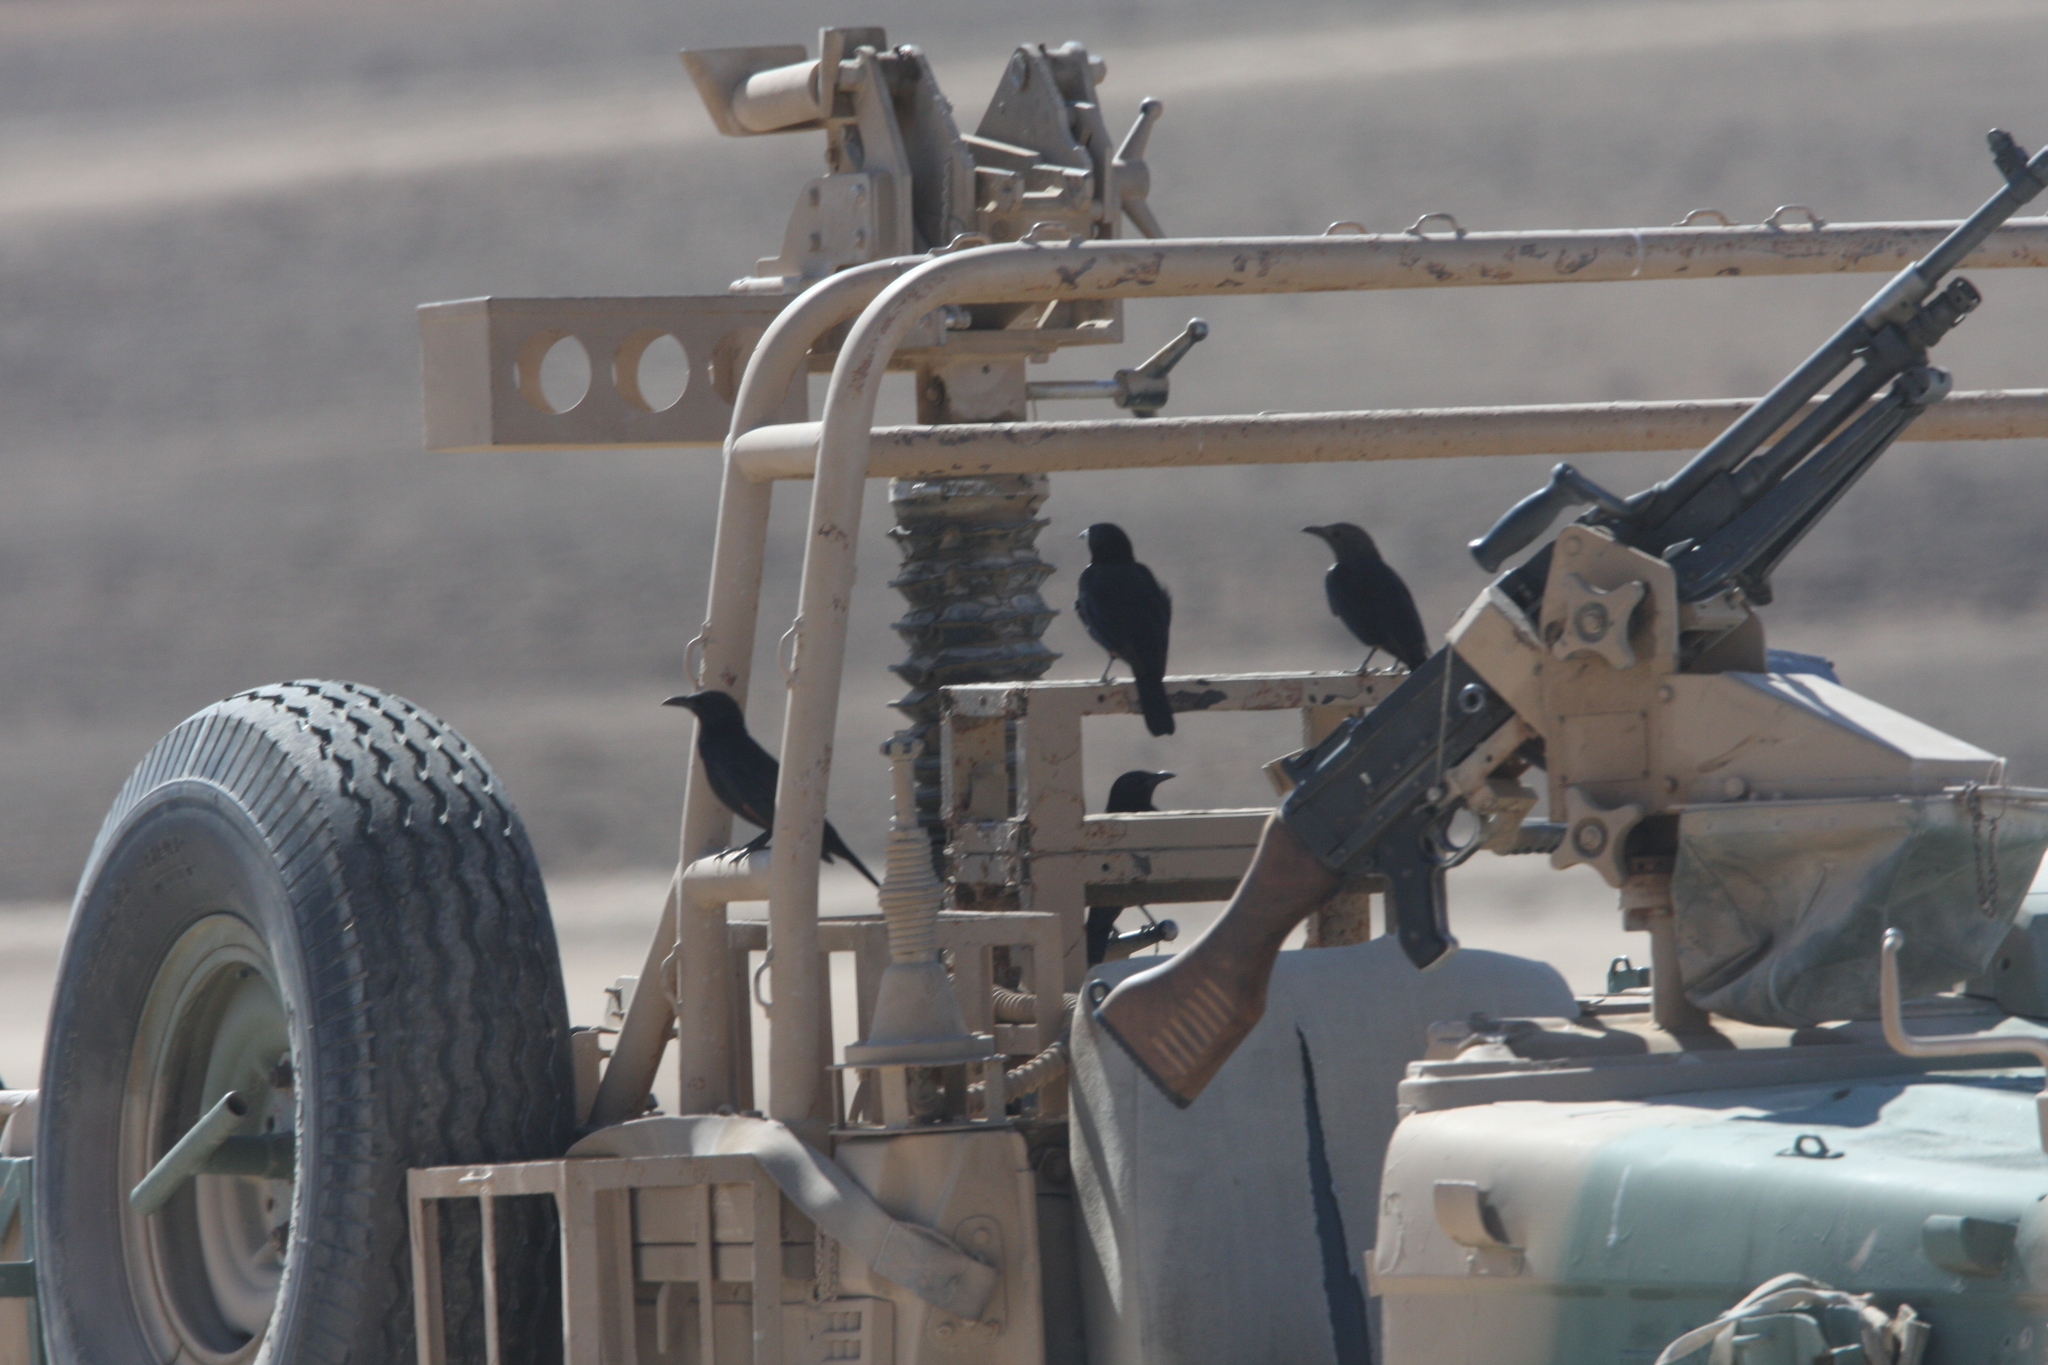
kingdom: Animalia
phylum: Chordata
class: Aves
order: Passeriformes
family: Sturnidae
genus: Onychognathus
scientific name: Onychognathus tristramii
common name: Tristram's starling
